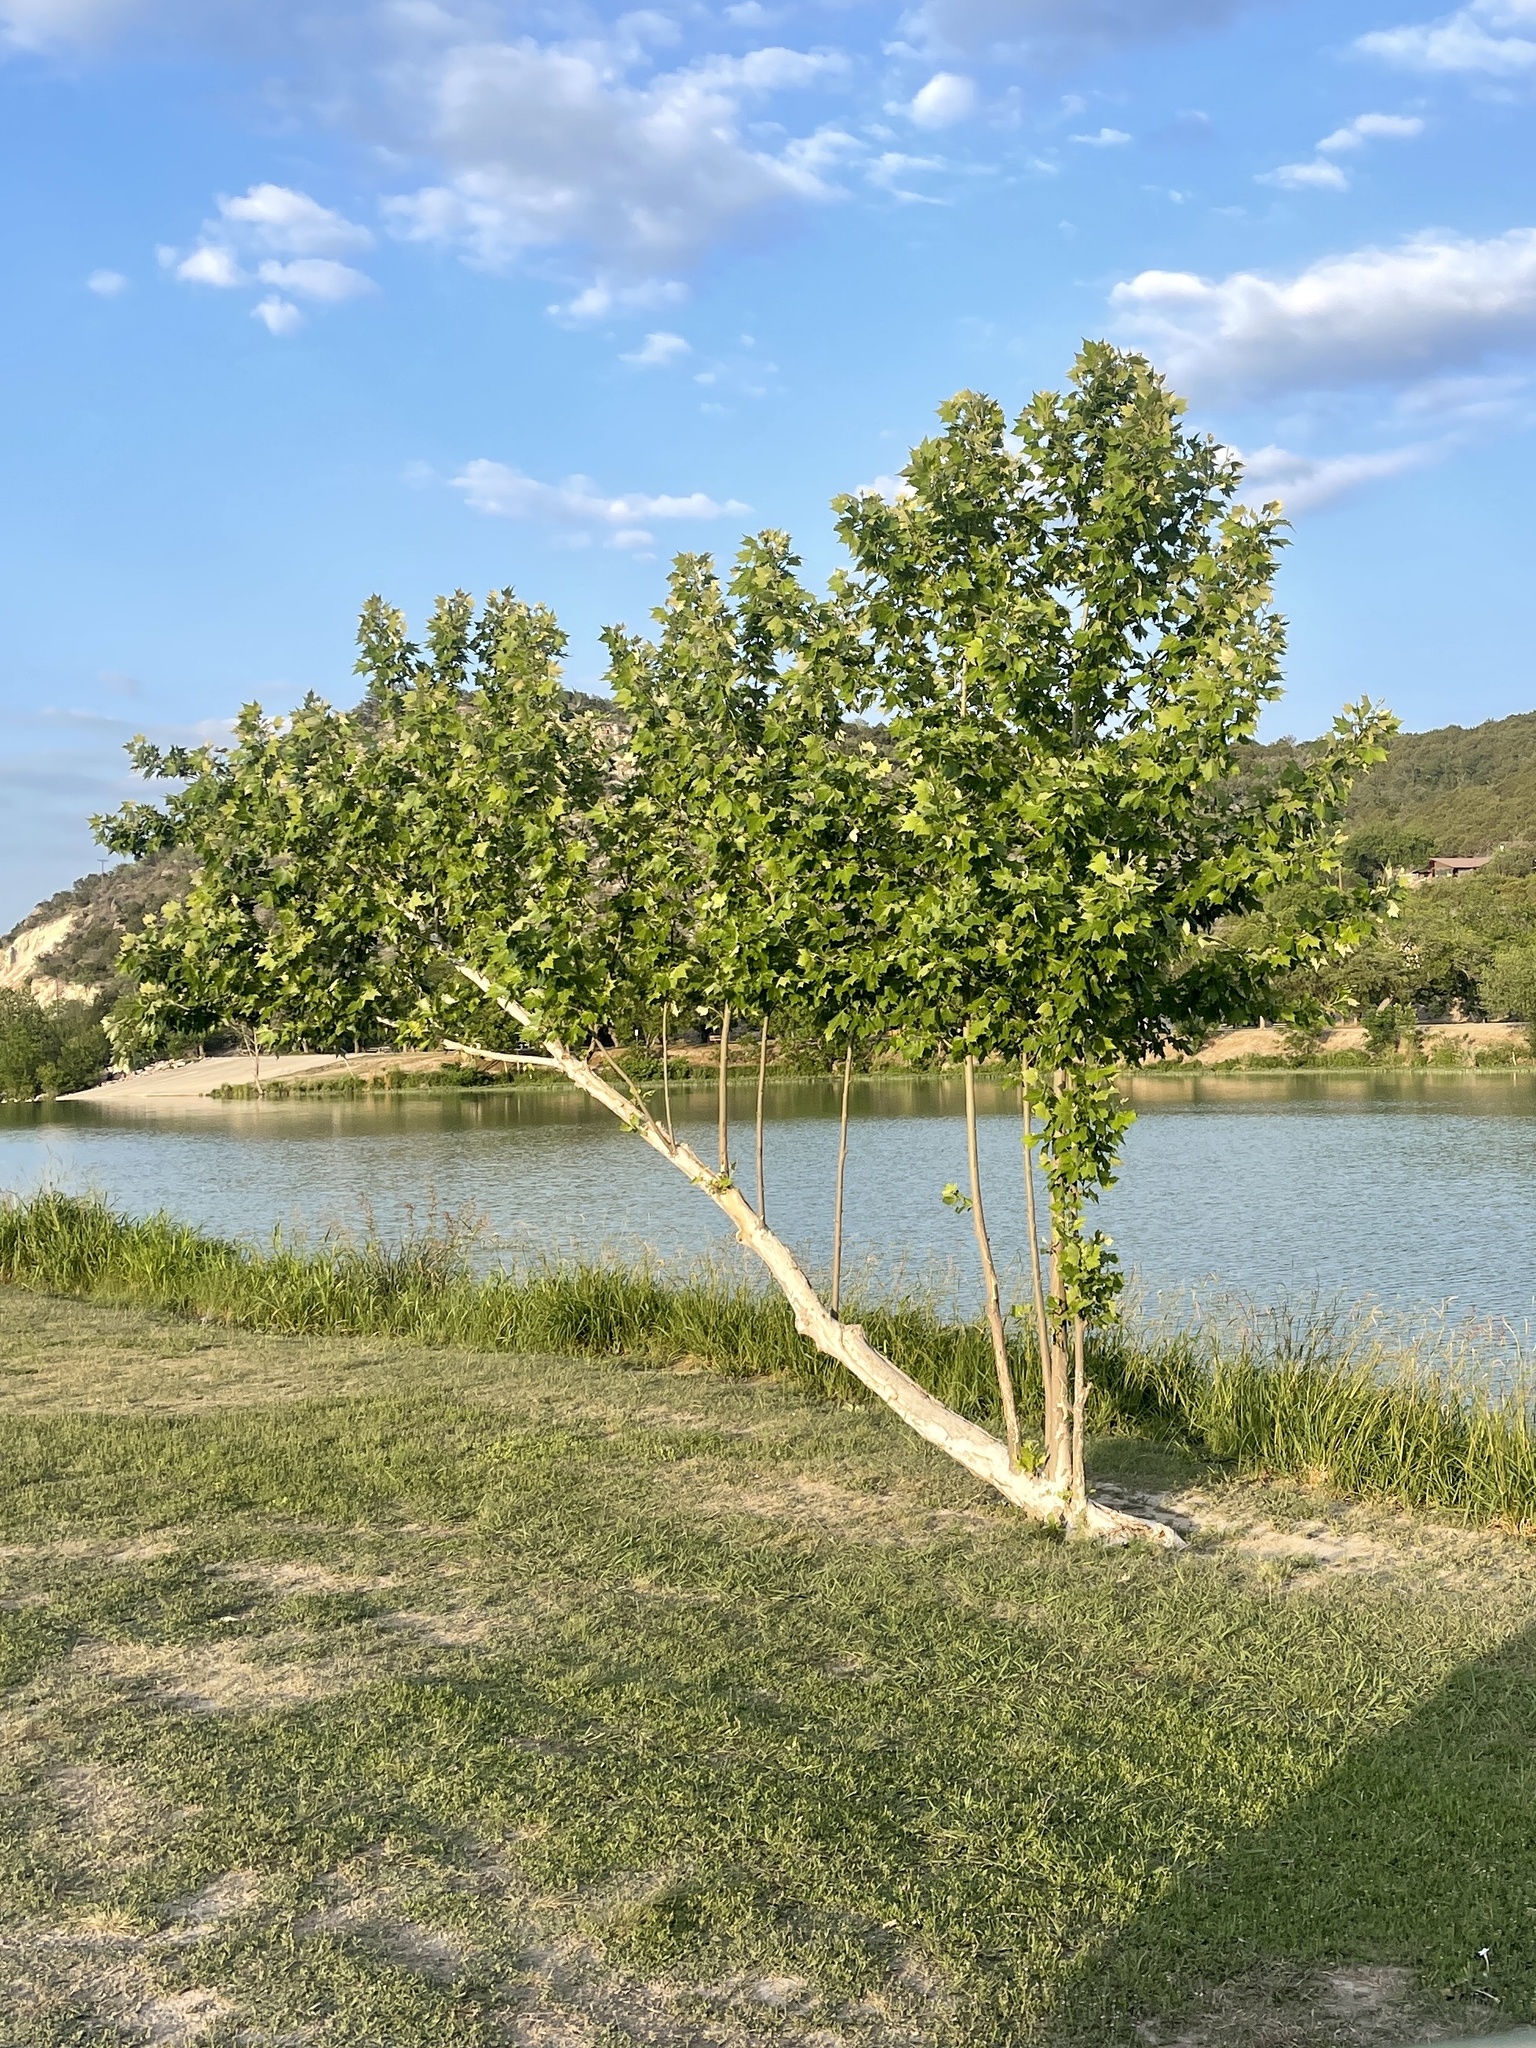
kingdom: Plantae
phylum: Tracheophyta
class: Magnoliopsida
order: Proteales
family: Platanaceae
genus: Platanus
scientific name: Platanus occidentalis
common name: American sycamore
